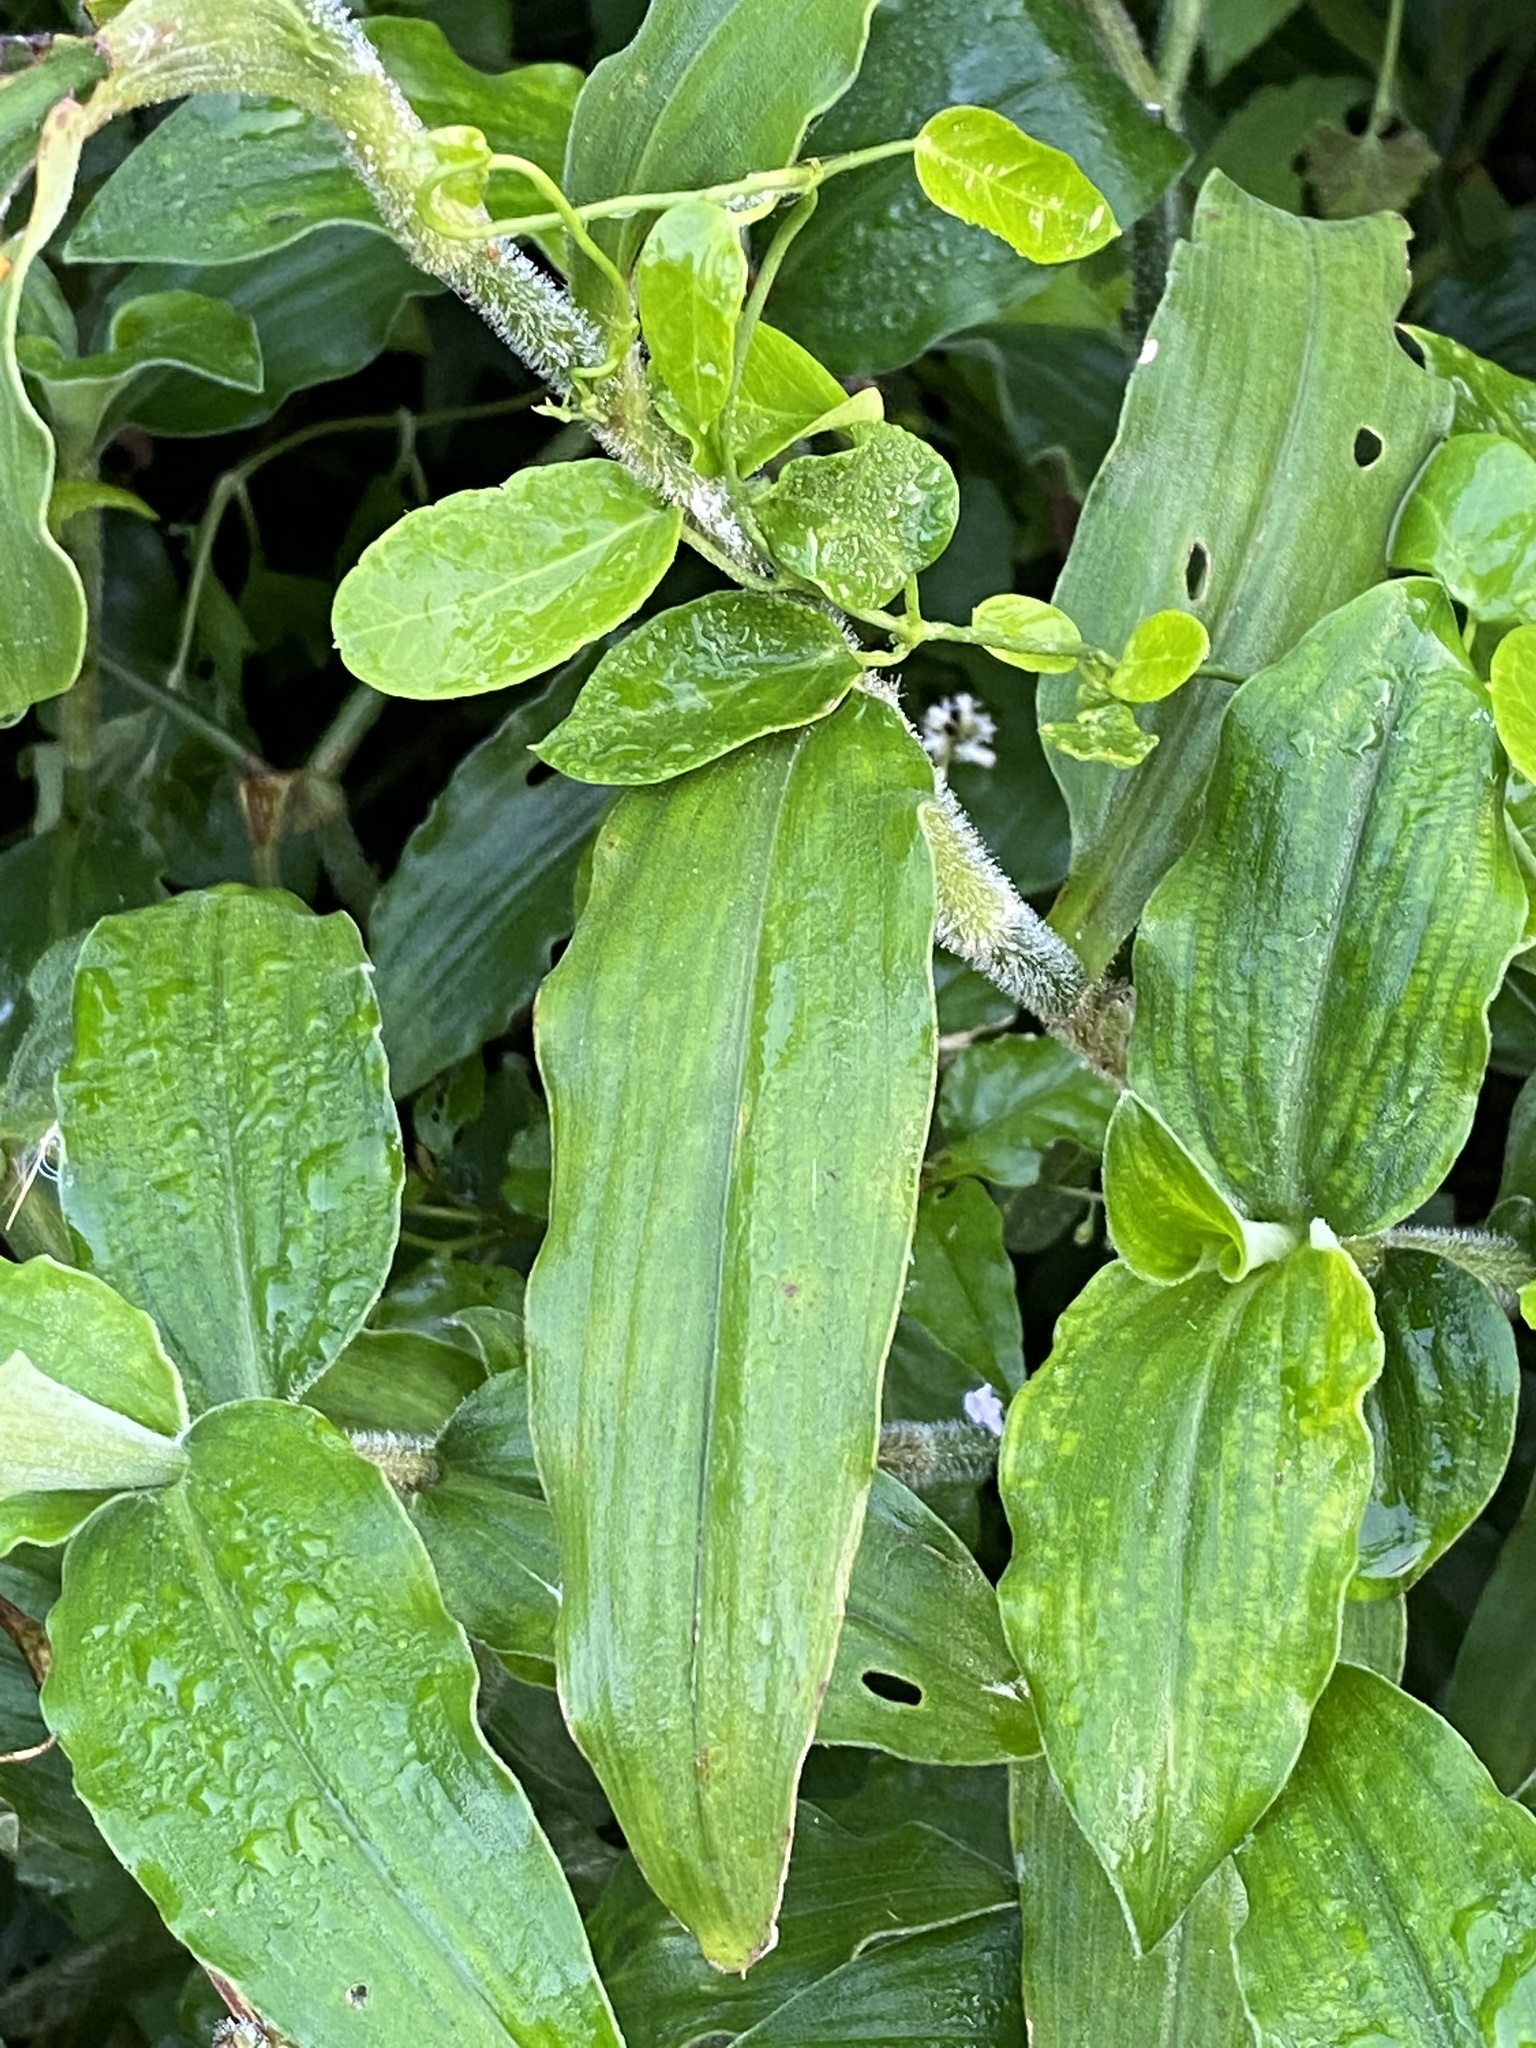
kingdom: Plantae
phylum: Tracheophyta
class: Liliopsida
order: Commelinales
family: Commelinaceae
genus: Aneilema
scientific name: Aneilema aequinoctiale
